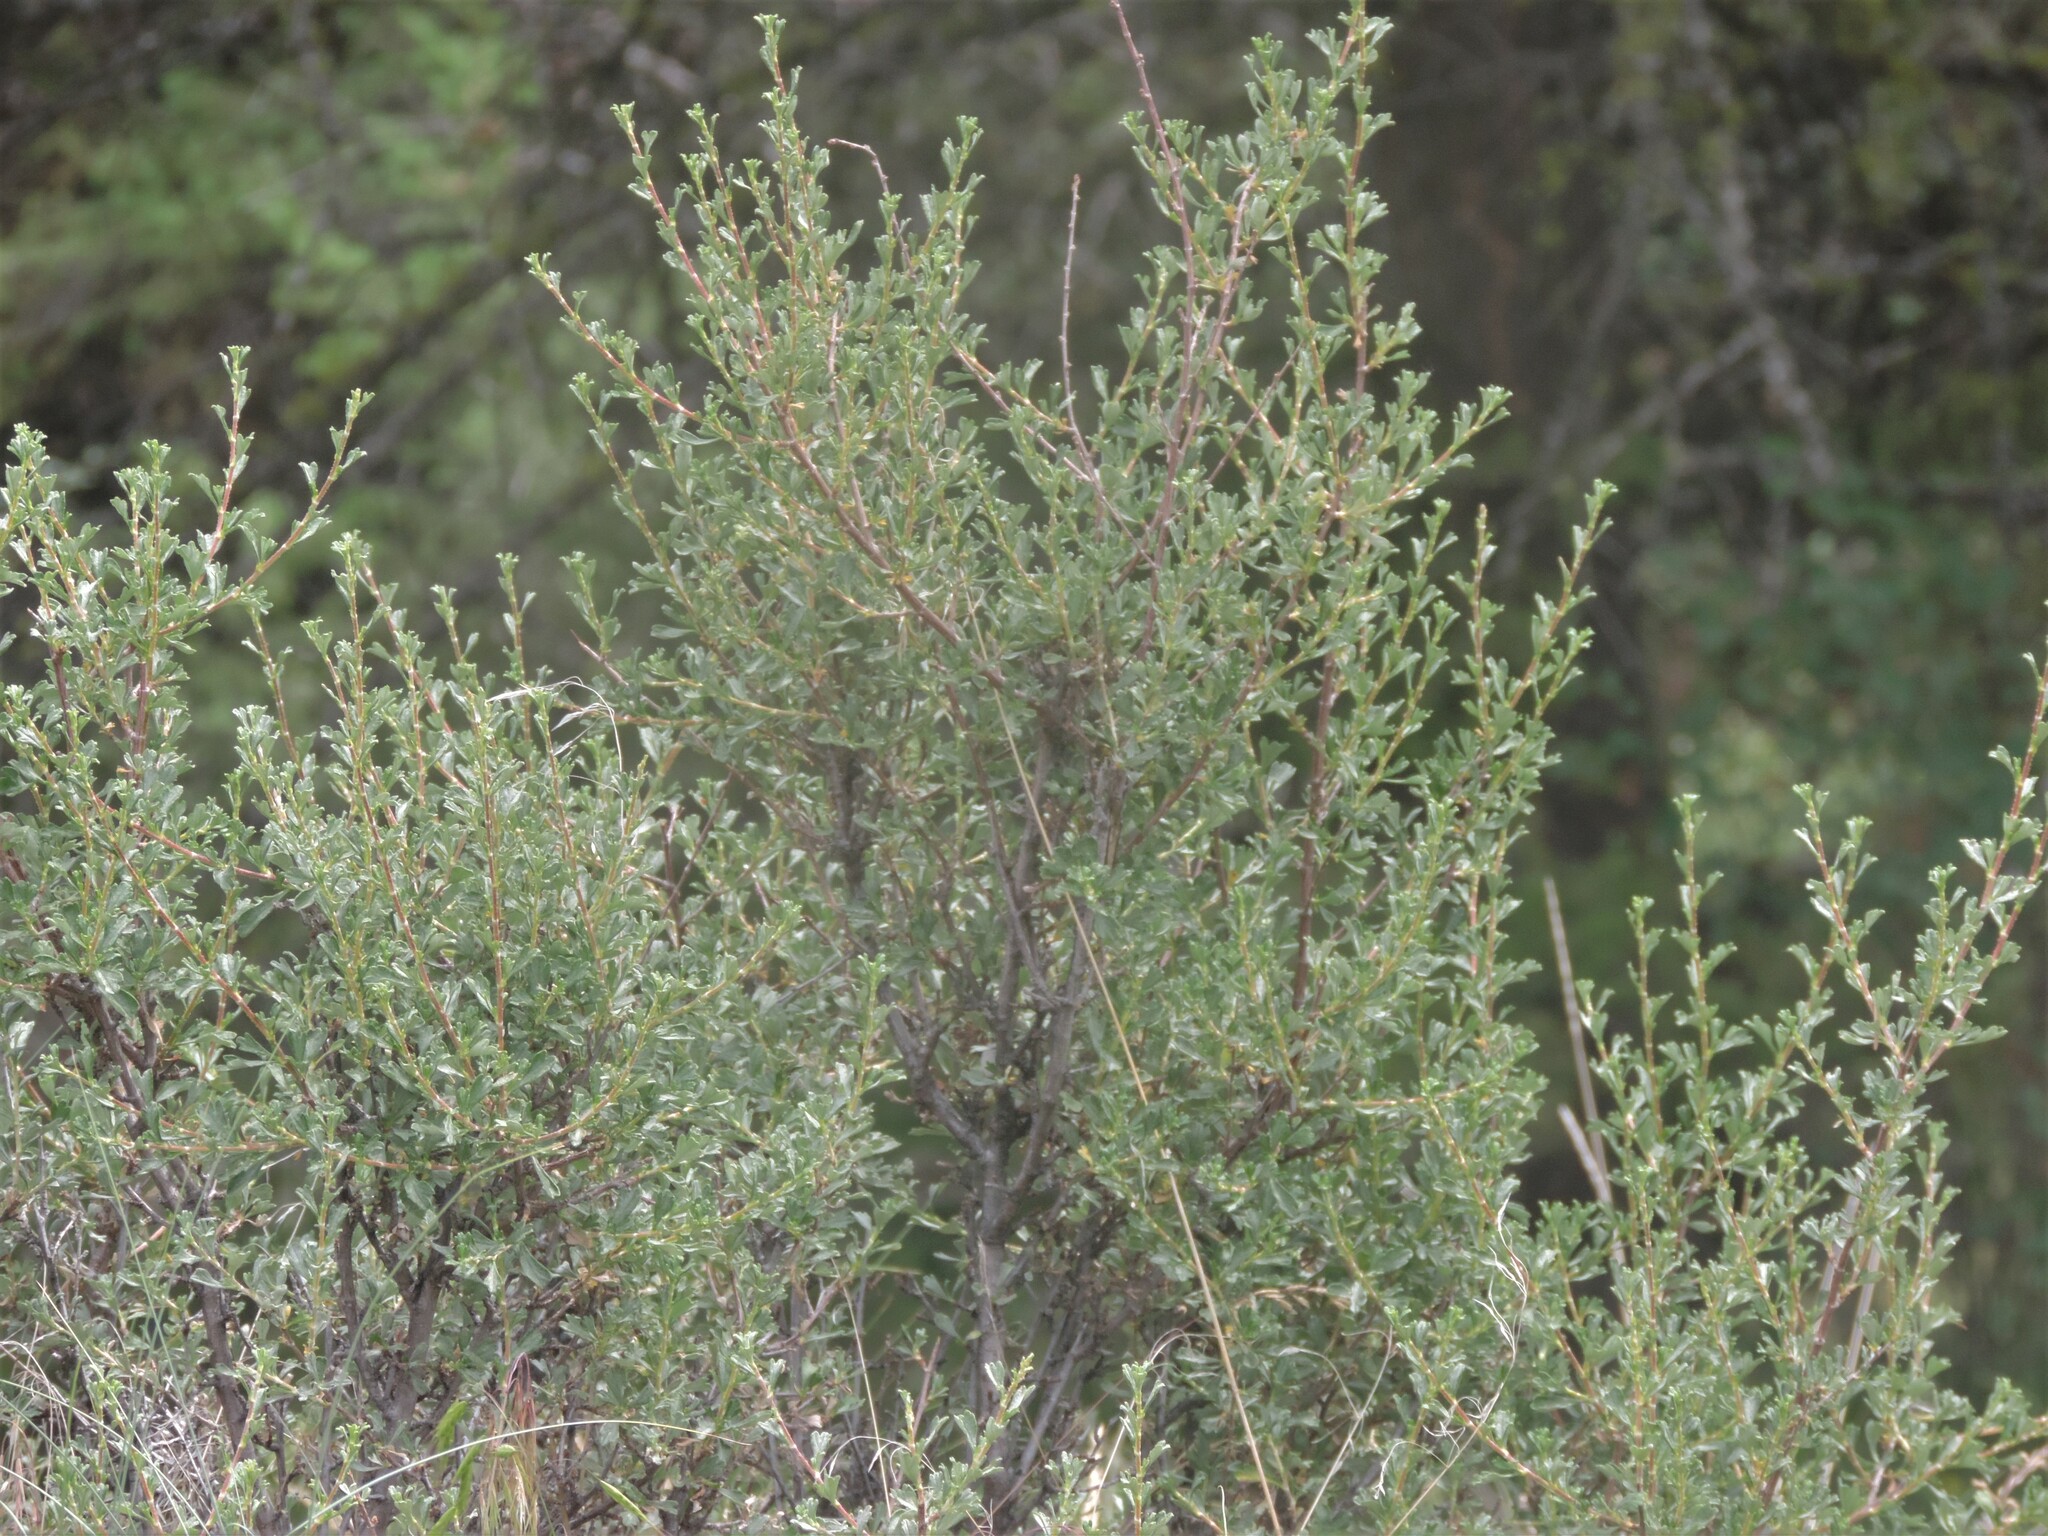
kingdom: Plantae
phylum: Tracheophyta
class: Magnoliopsida
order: Rosales
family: Rosaceae
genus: Purshia
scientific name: Purshia tridentata
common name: Antelope bitterbrush
